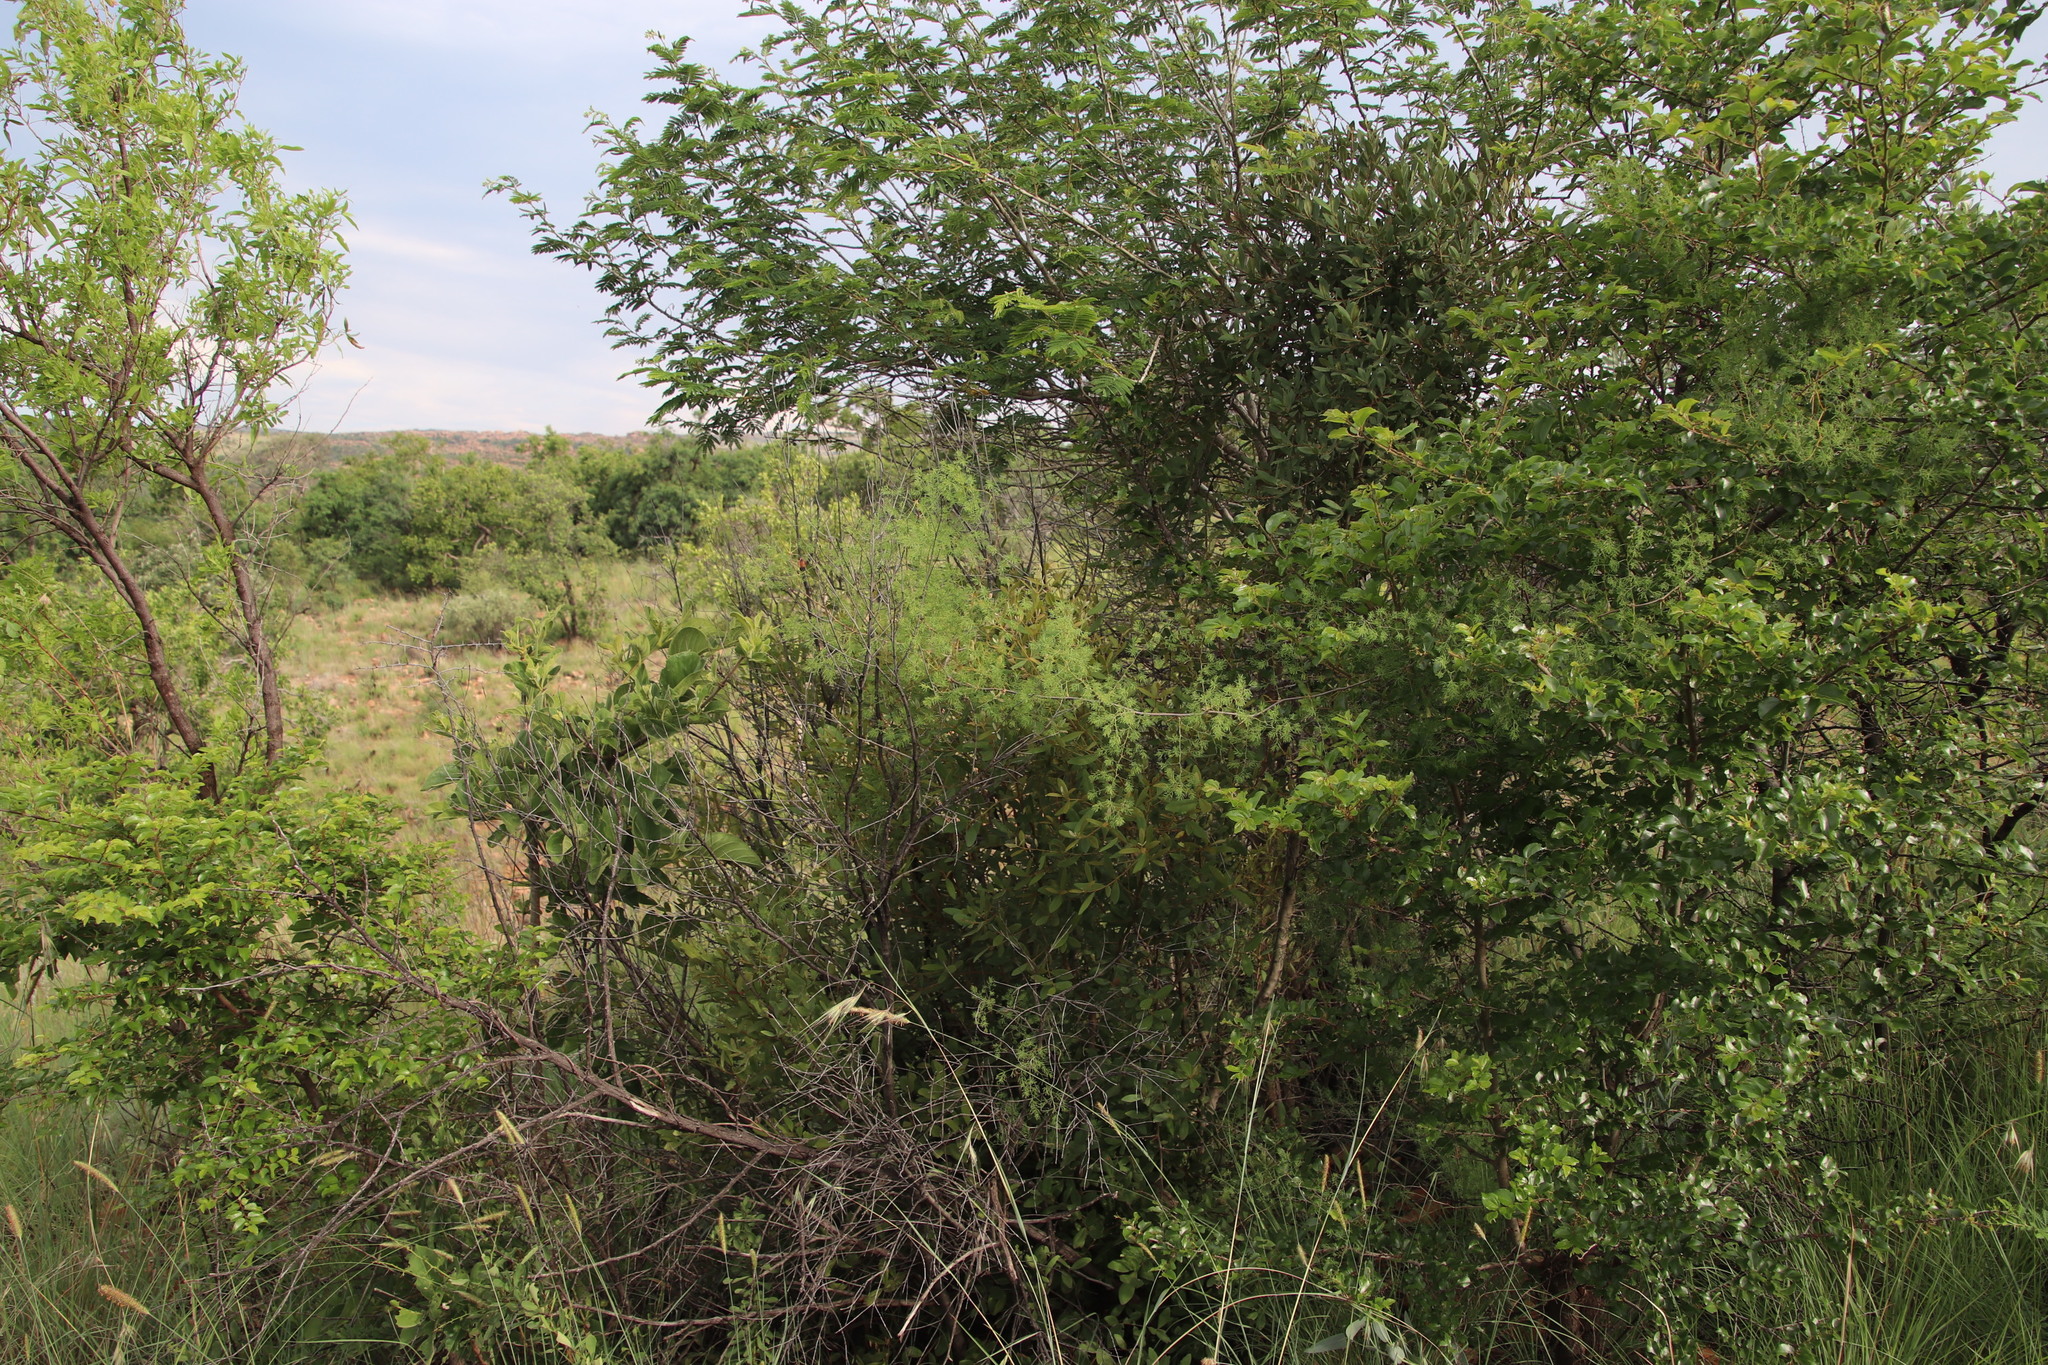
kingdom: Plantae
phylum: Tracheophyta
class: Liliopsida
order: Asparagales
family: Asparagaceae
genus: Asparagus
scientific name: Asparagus africanus
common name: Asparagus-fern
